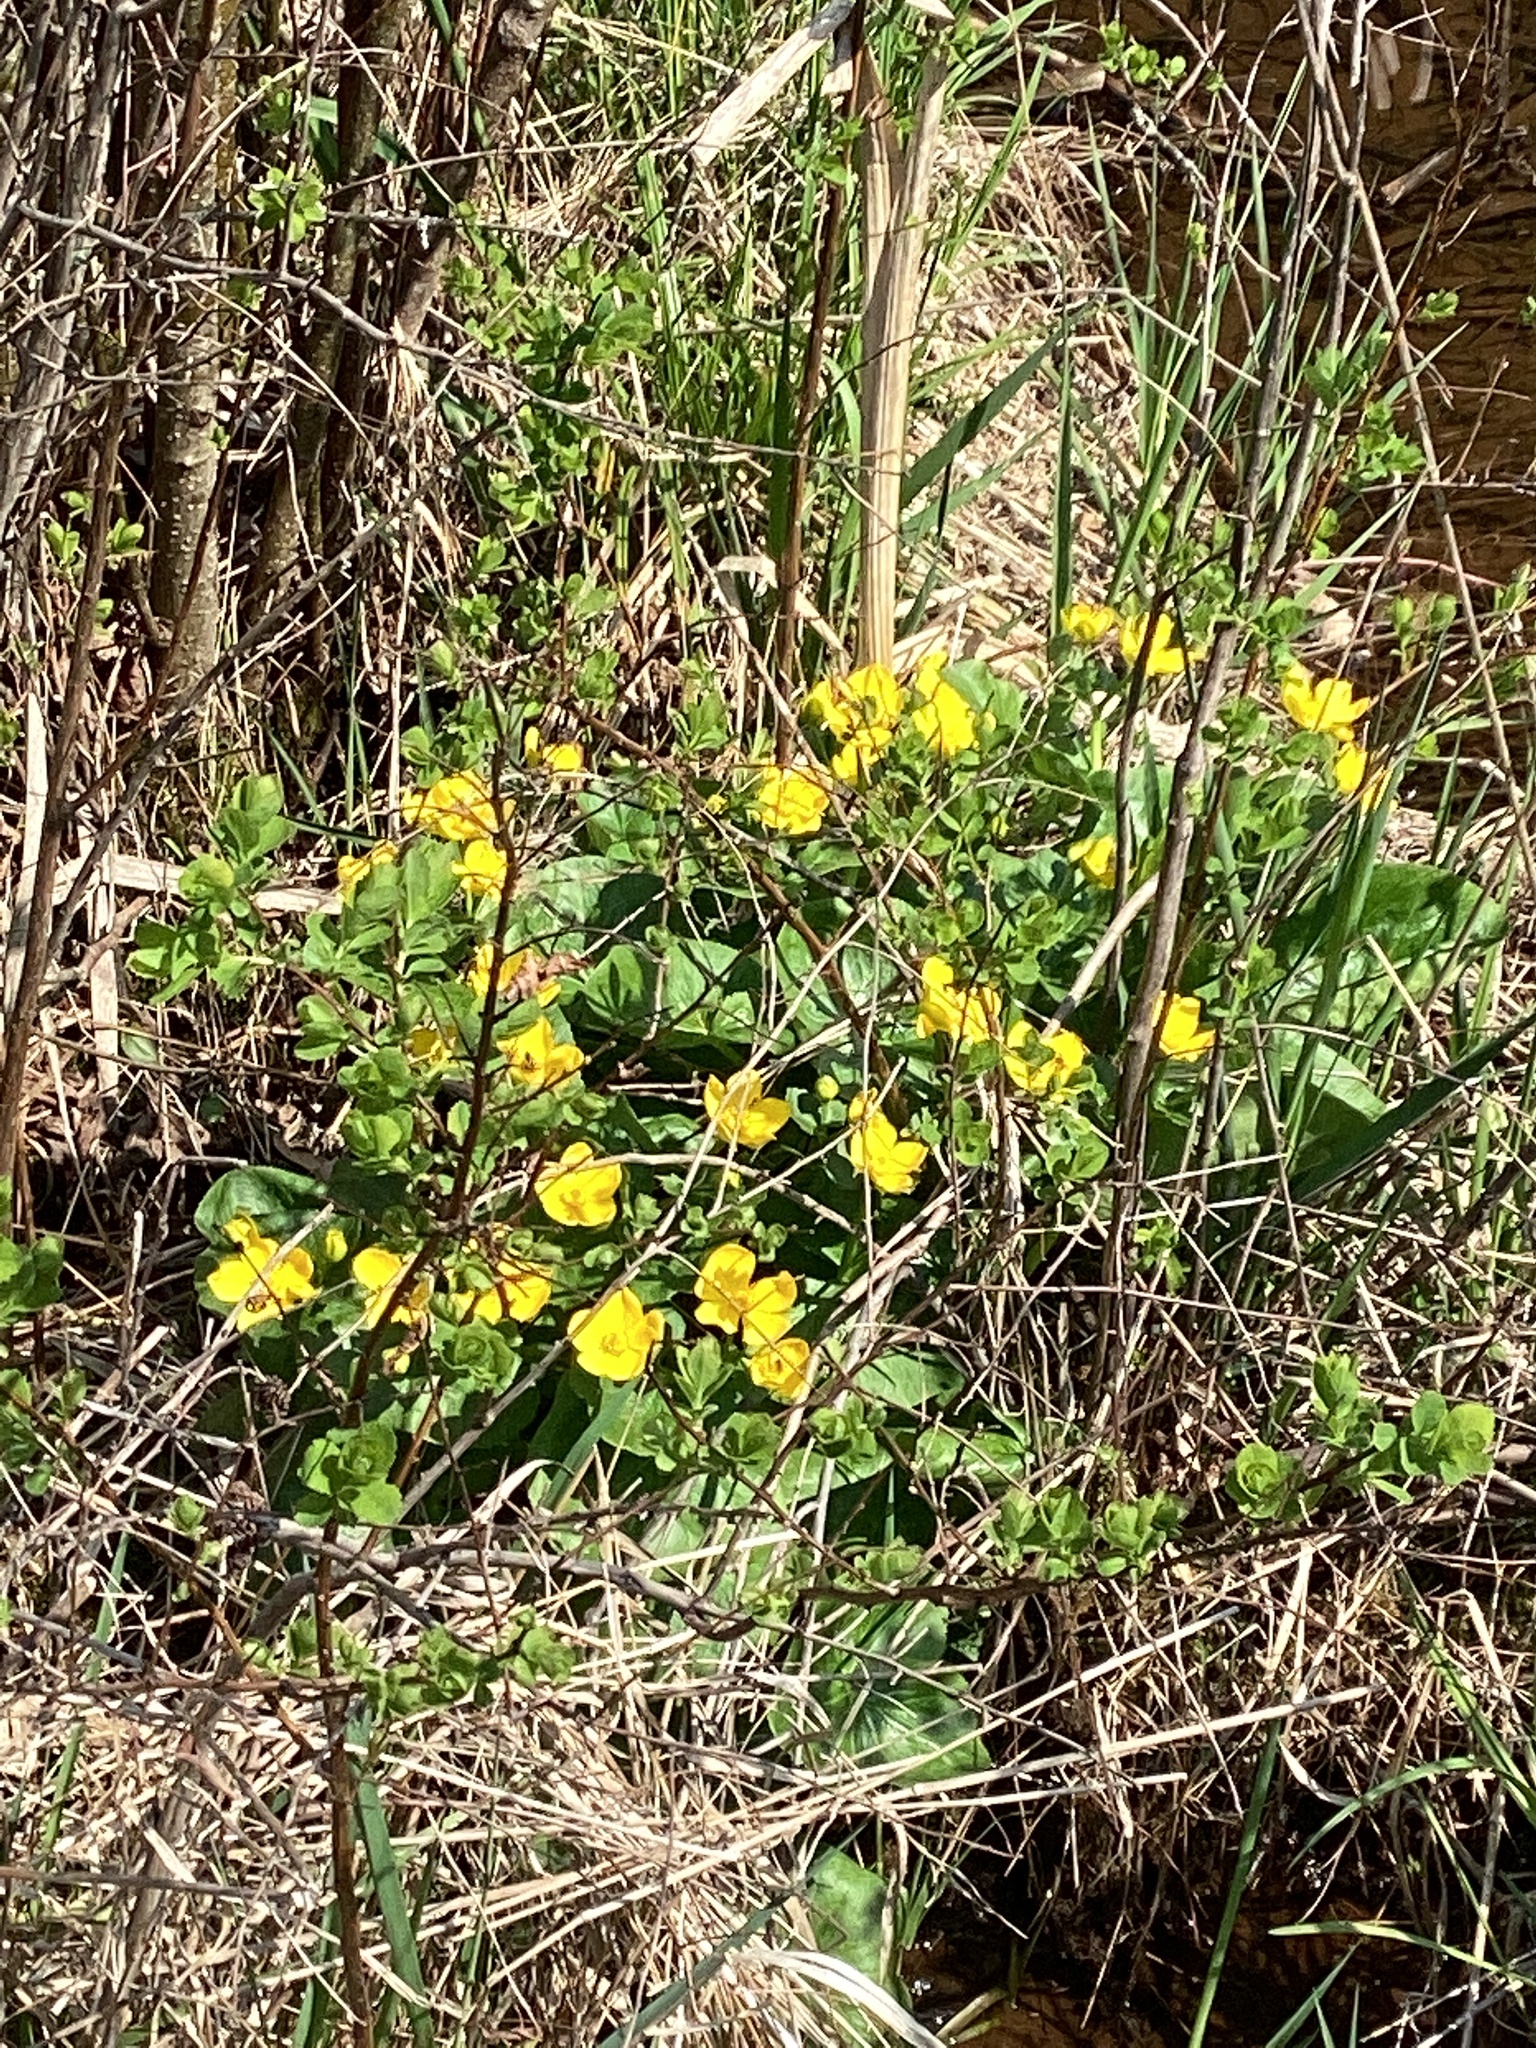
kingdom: Plantae
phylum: Tracheophyta
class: Magnoliopsida
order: Ranunculales
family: Ranunculaceae
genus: Caltha
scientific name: Caltha palustris
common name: Marsh marigold
